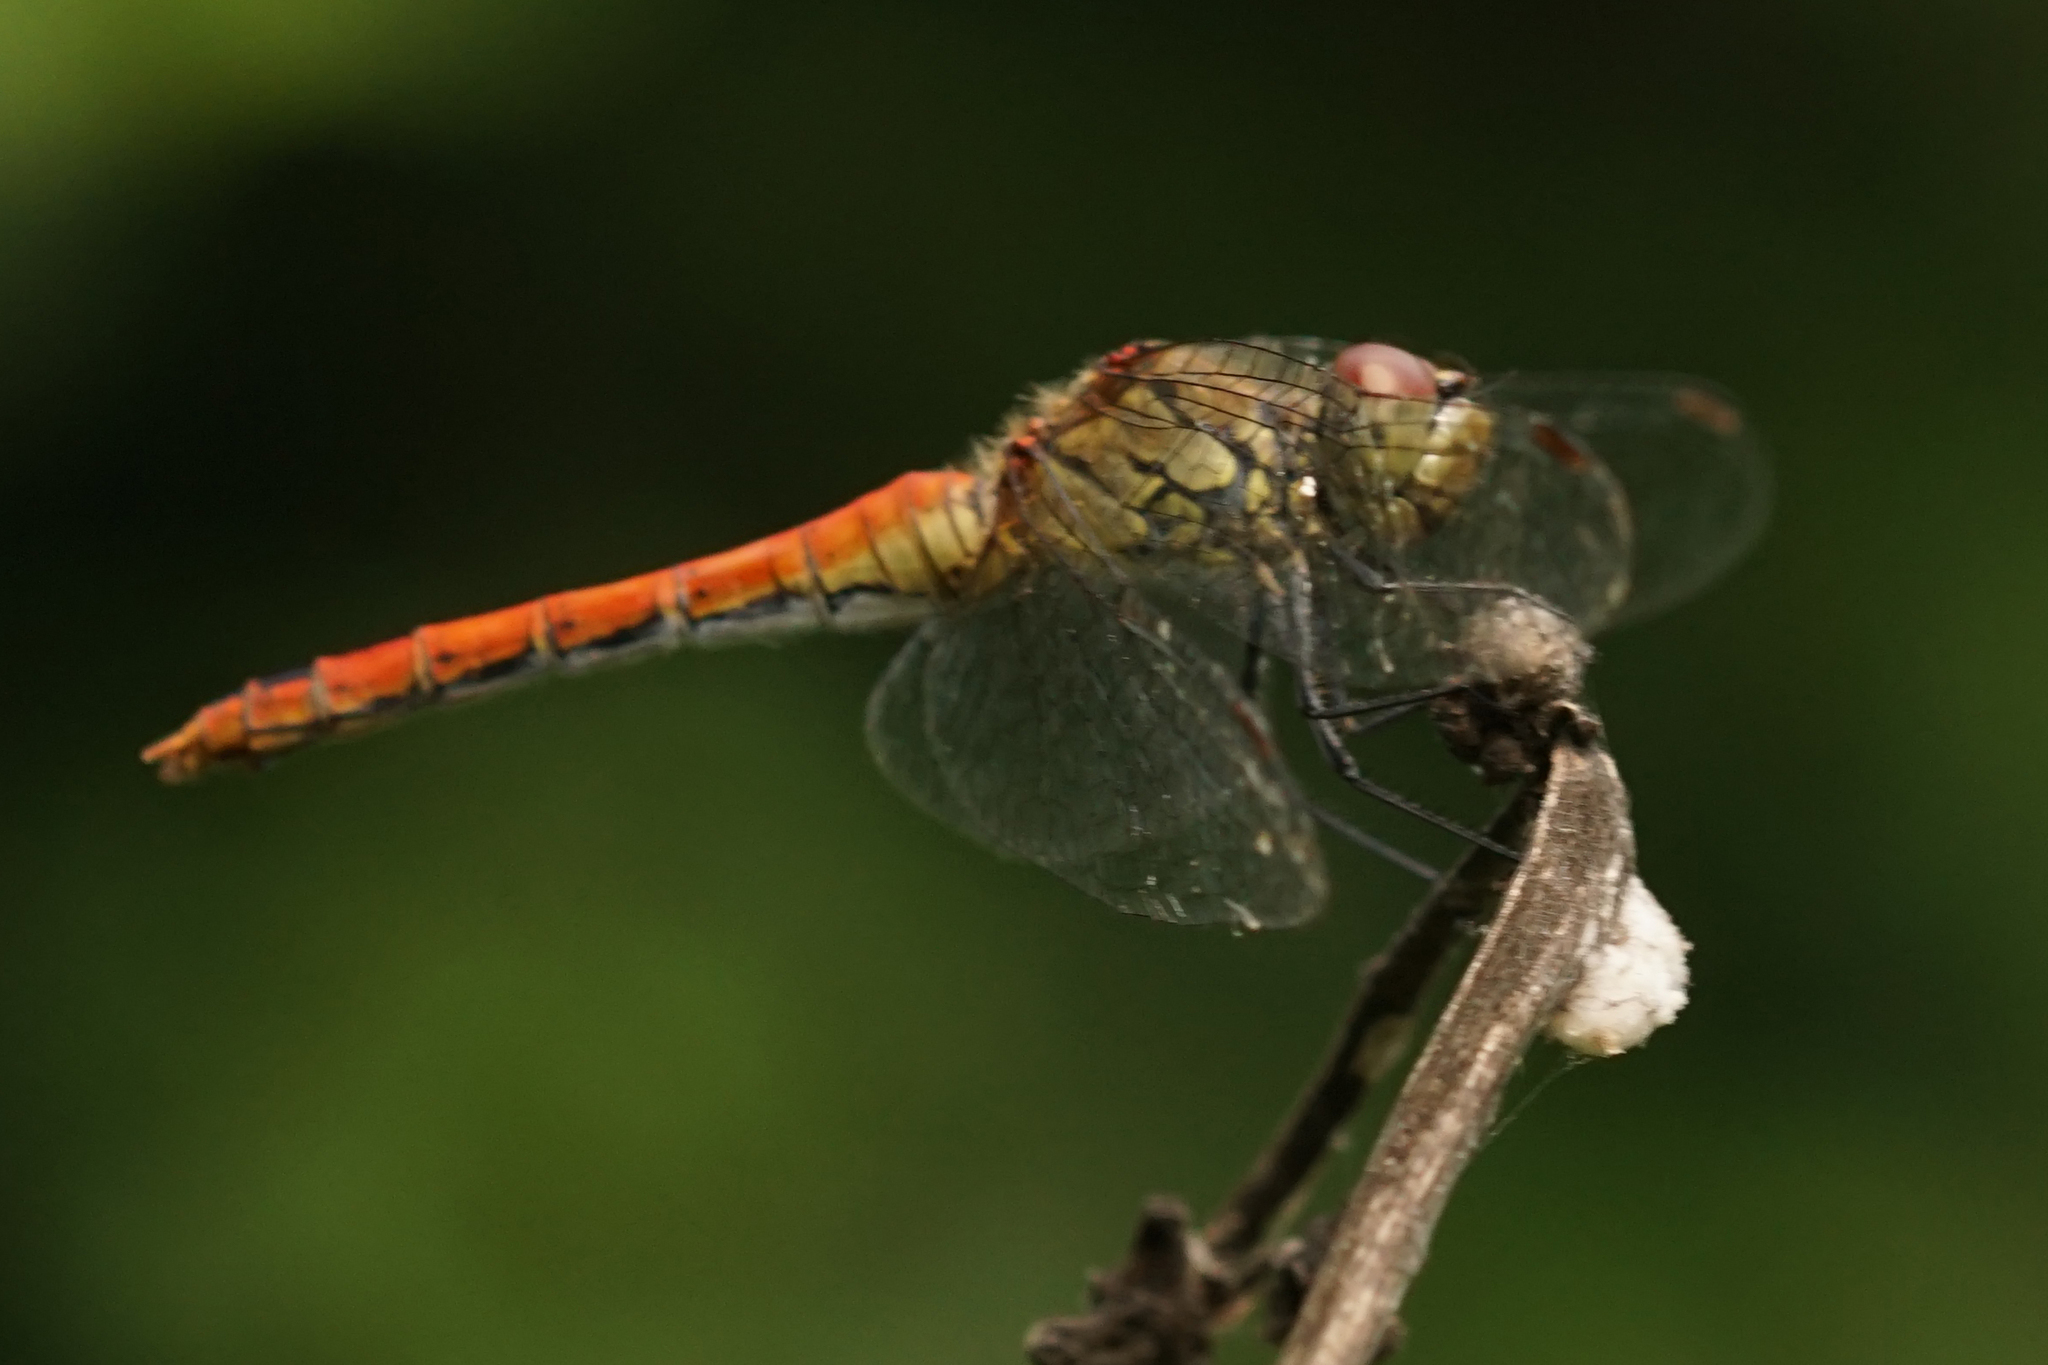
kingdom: Animalia
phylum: Arthropoda
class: Insecta
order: Odonata
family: Libellulidae
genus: Sympetrum
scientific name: Sympetrum sanguineum
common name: Ruddy darter
